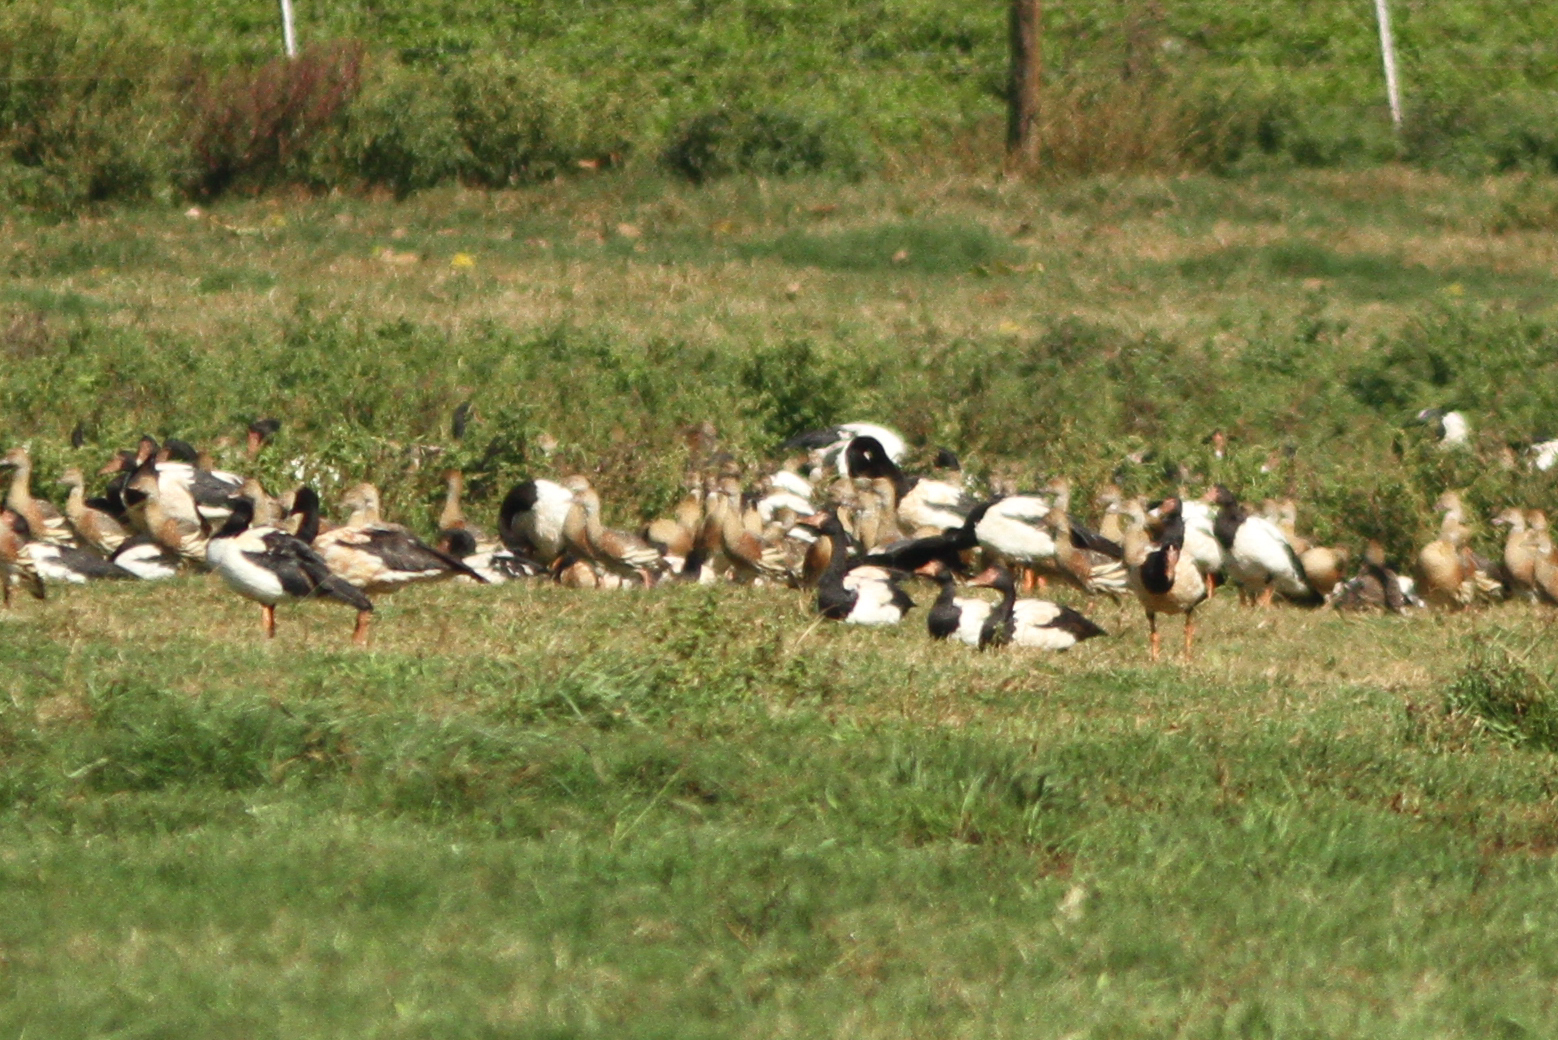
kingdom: Animalia
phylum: Chordata
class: Aves
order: Anseriformes
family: Anseranatidae
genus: Anseranas
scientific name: Anseranas semipalmata
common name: Magpie goose
